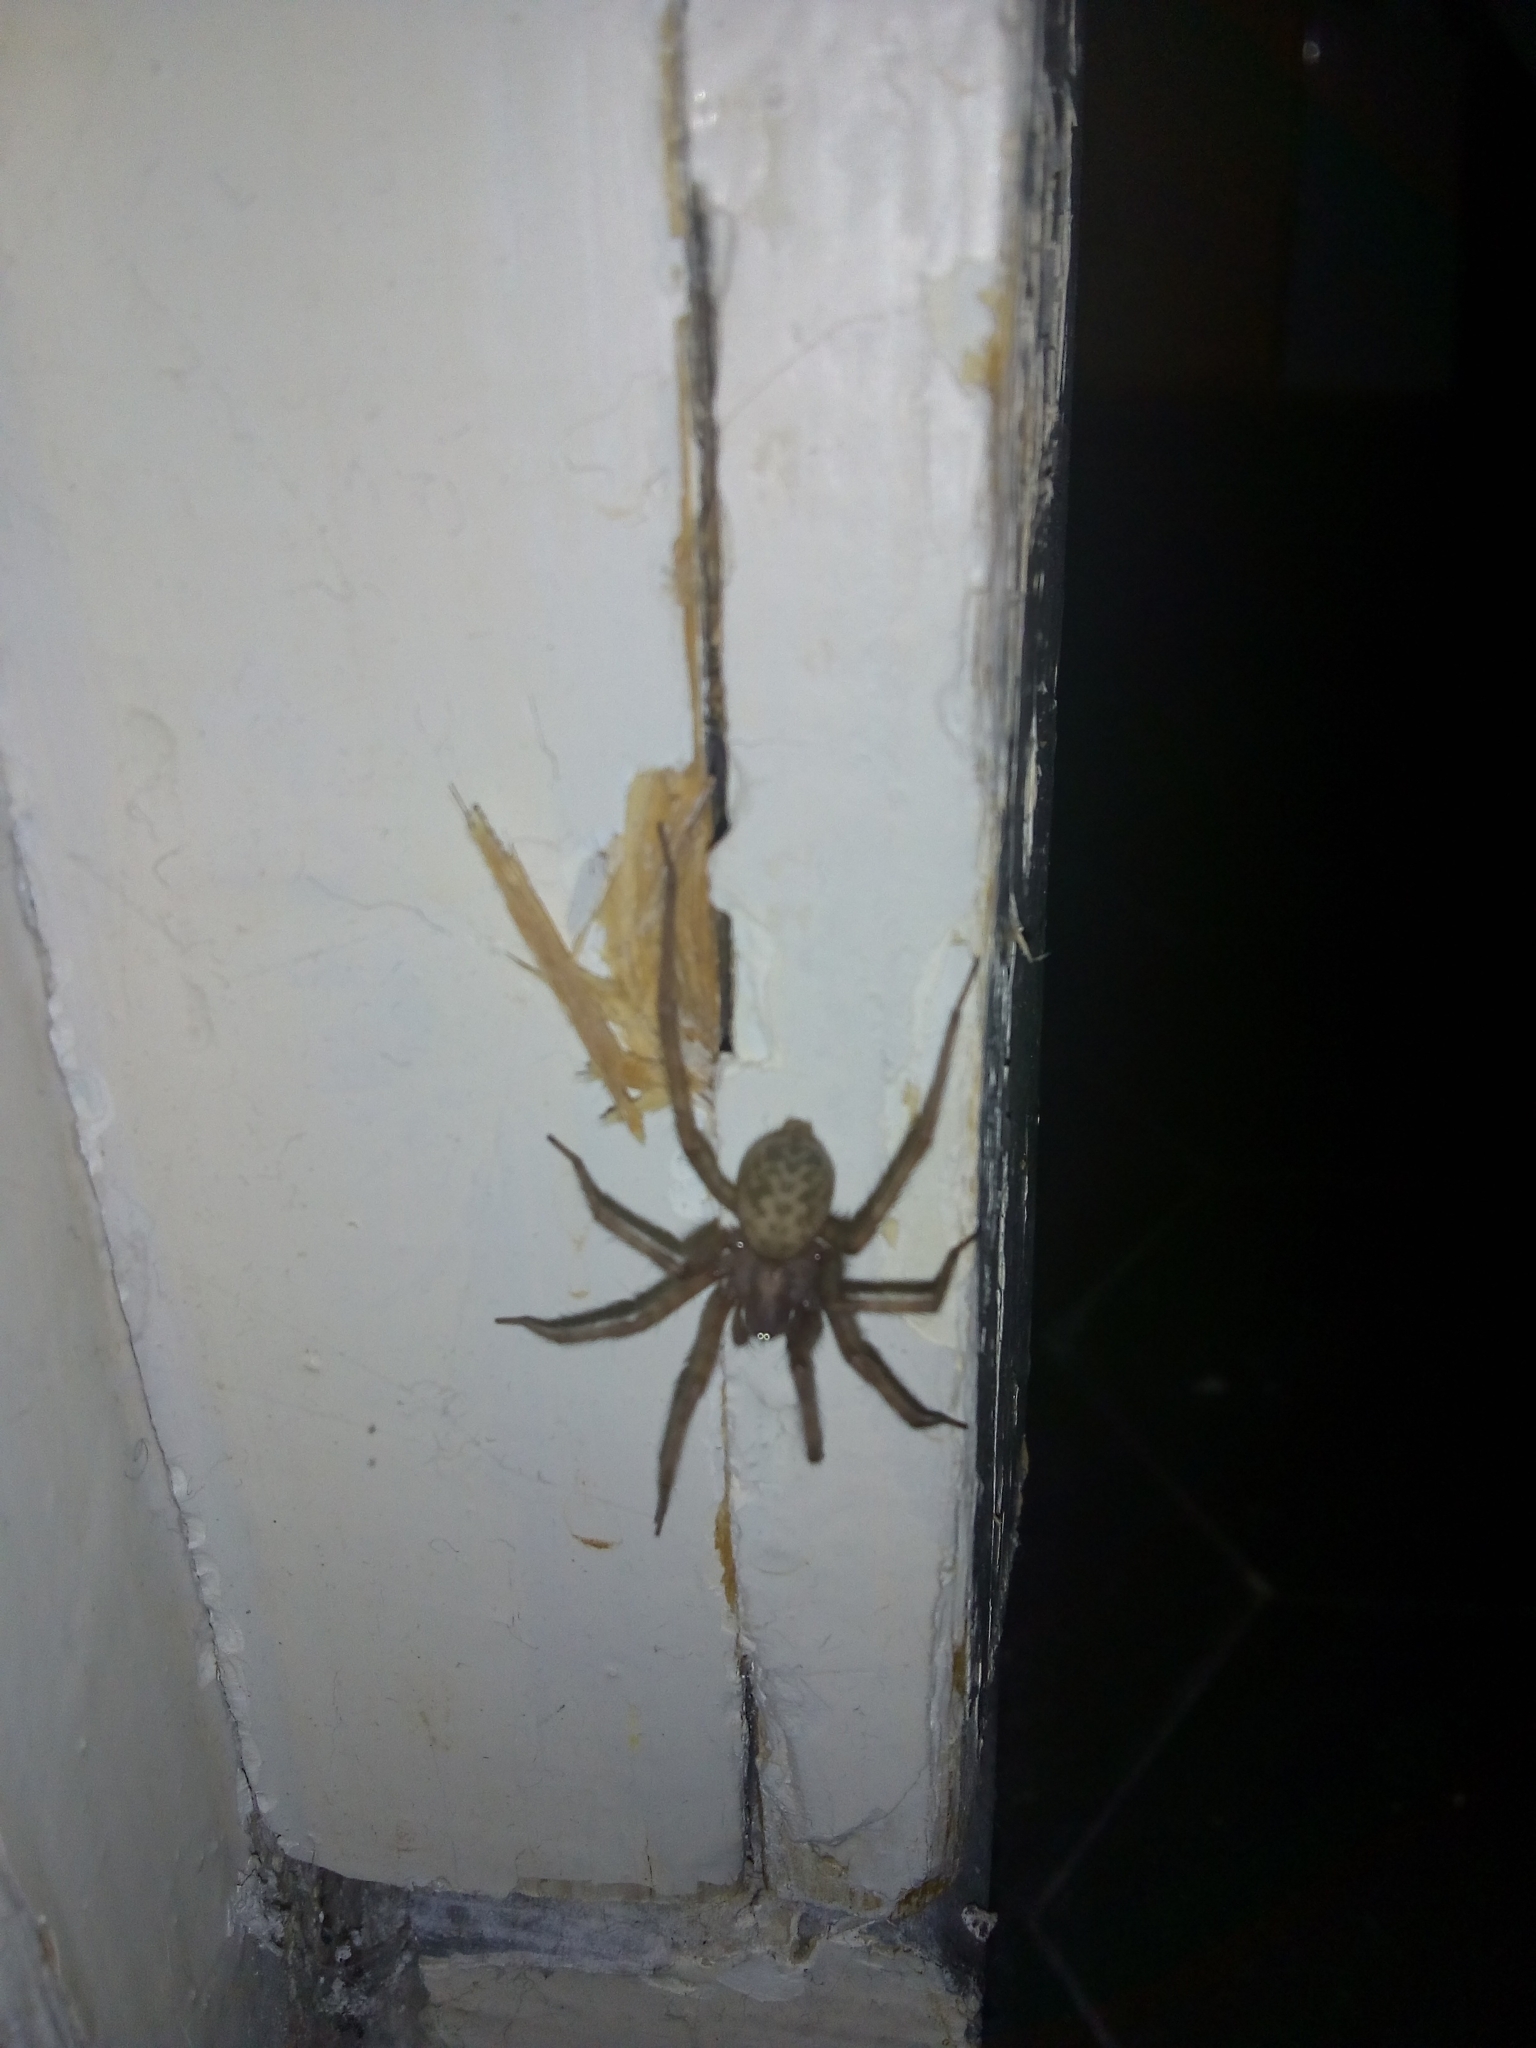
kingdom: Animalia
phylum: Arthropoda
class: Arachnida
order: Araneae
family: Agelenidae
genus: Tegenaria
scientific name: Tegenaria domestica
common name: Barn funnel weaver
